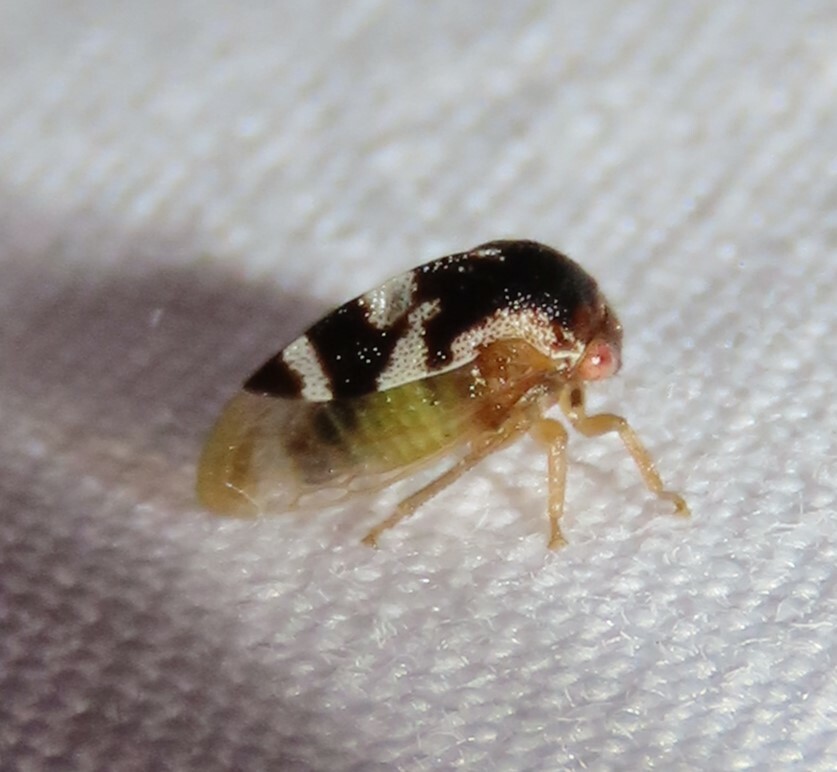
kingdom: Animalia
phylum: Arthropoda
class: Insecta
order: Hemiptera
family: Membracidae
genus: Cyrtolobus
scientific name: Cyrtolobus togatus
